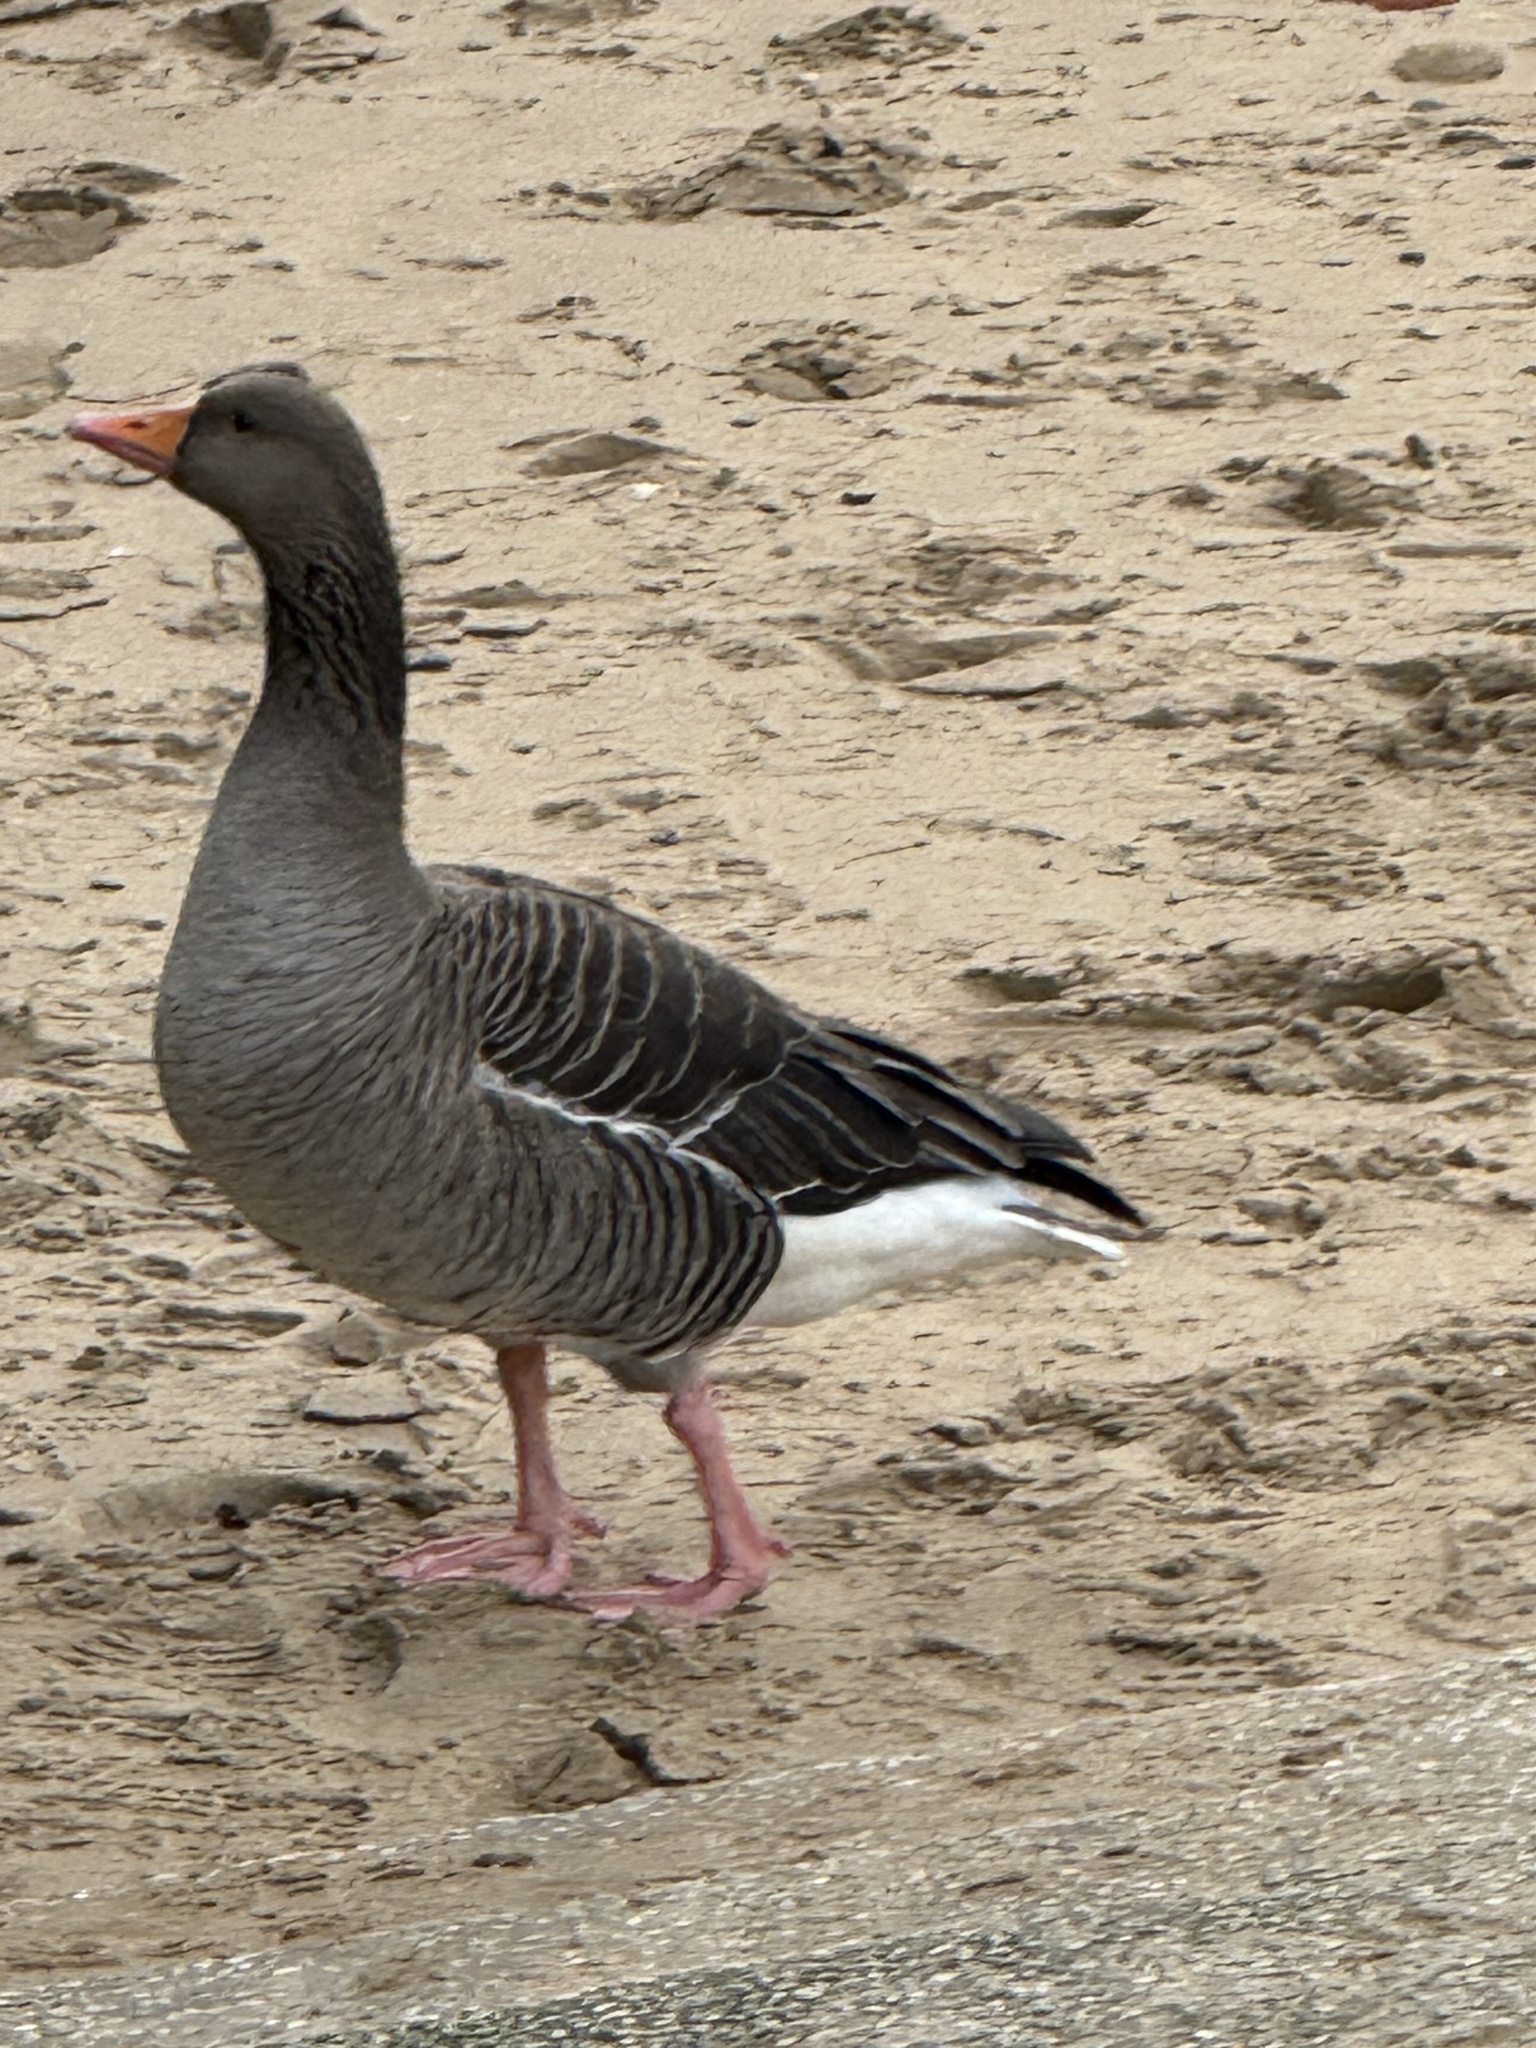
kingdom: Animalia
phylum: Chordata
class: Aves
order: Anseriformes
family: Anatidae
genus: Anser
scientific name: Anser anser
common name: Greylag goose
